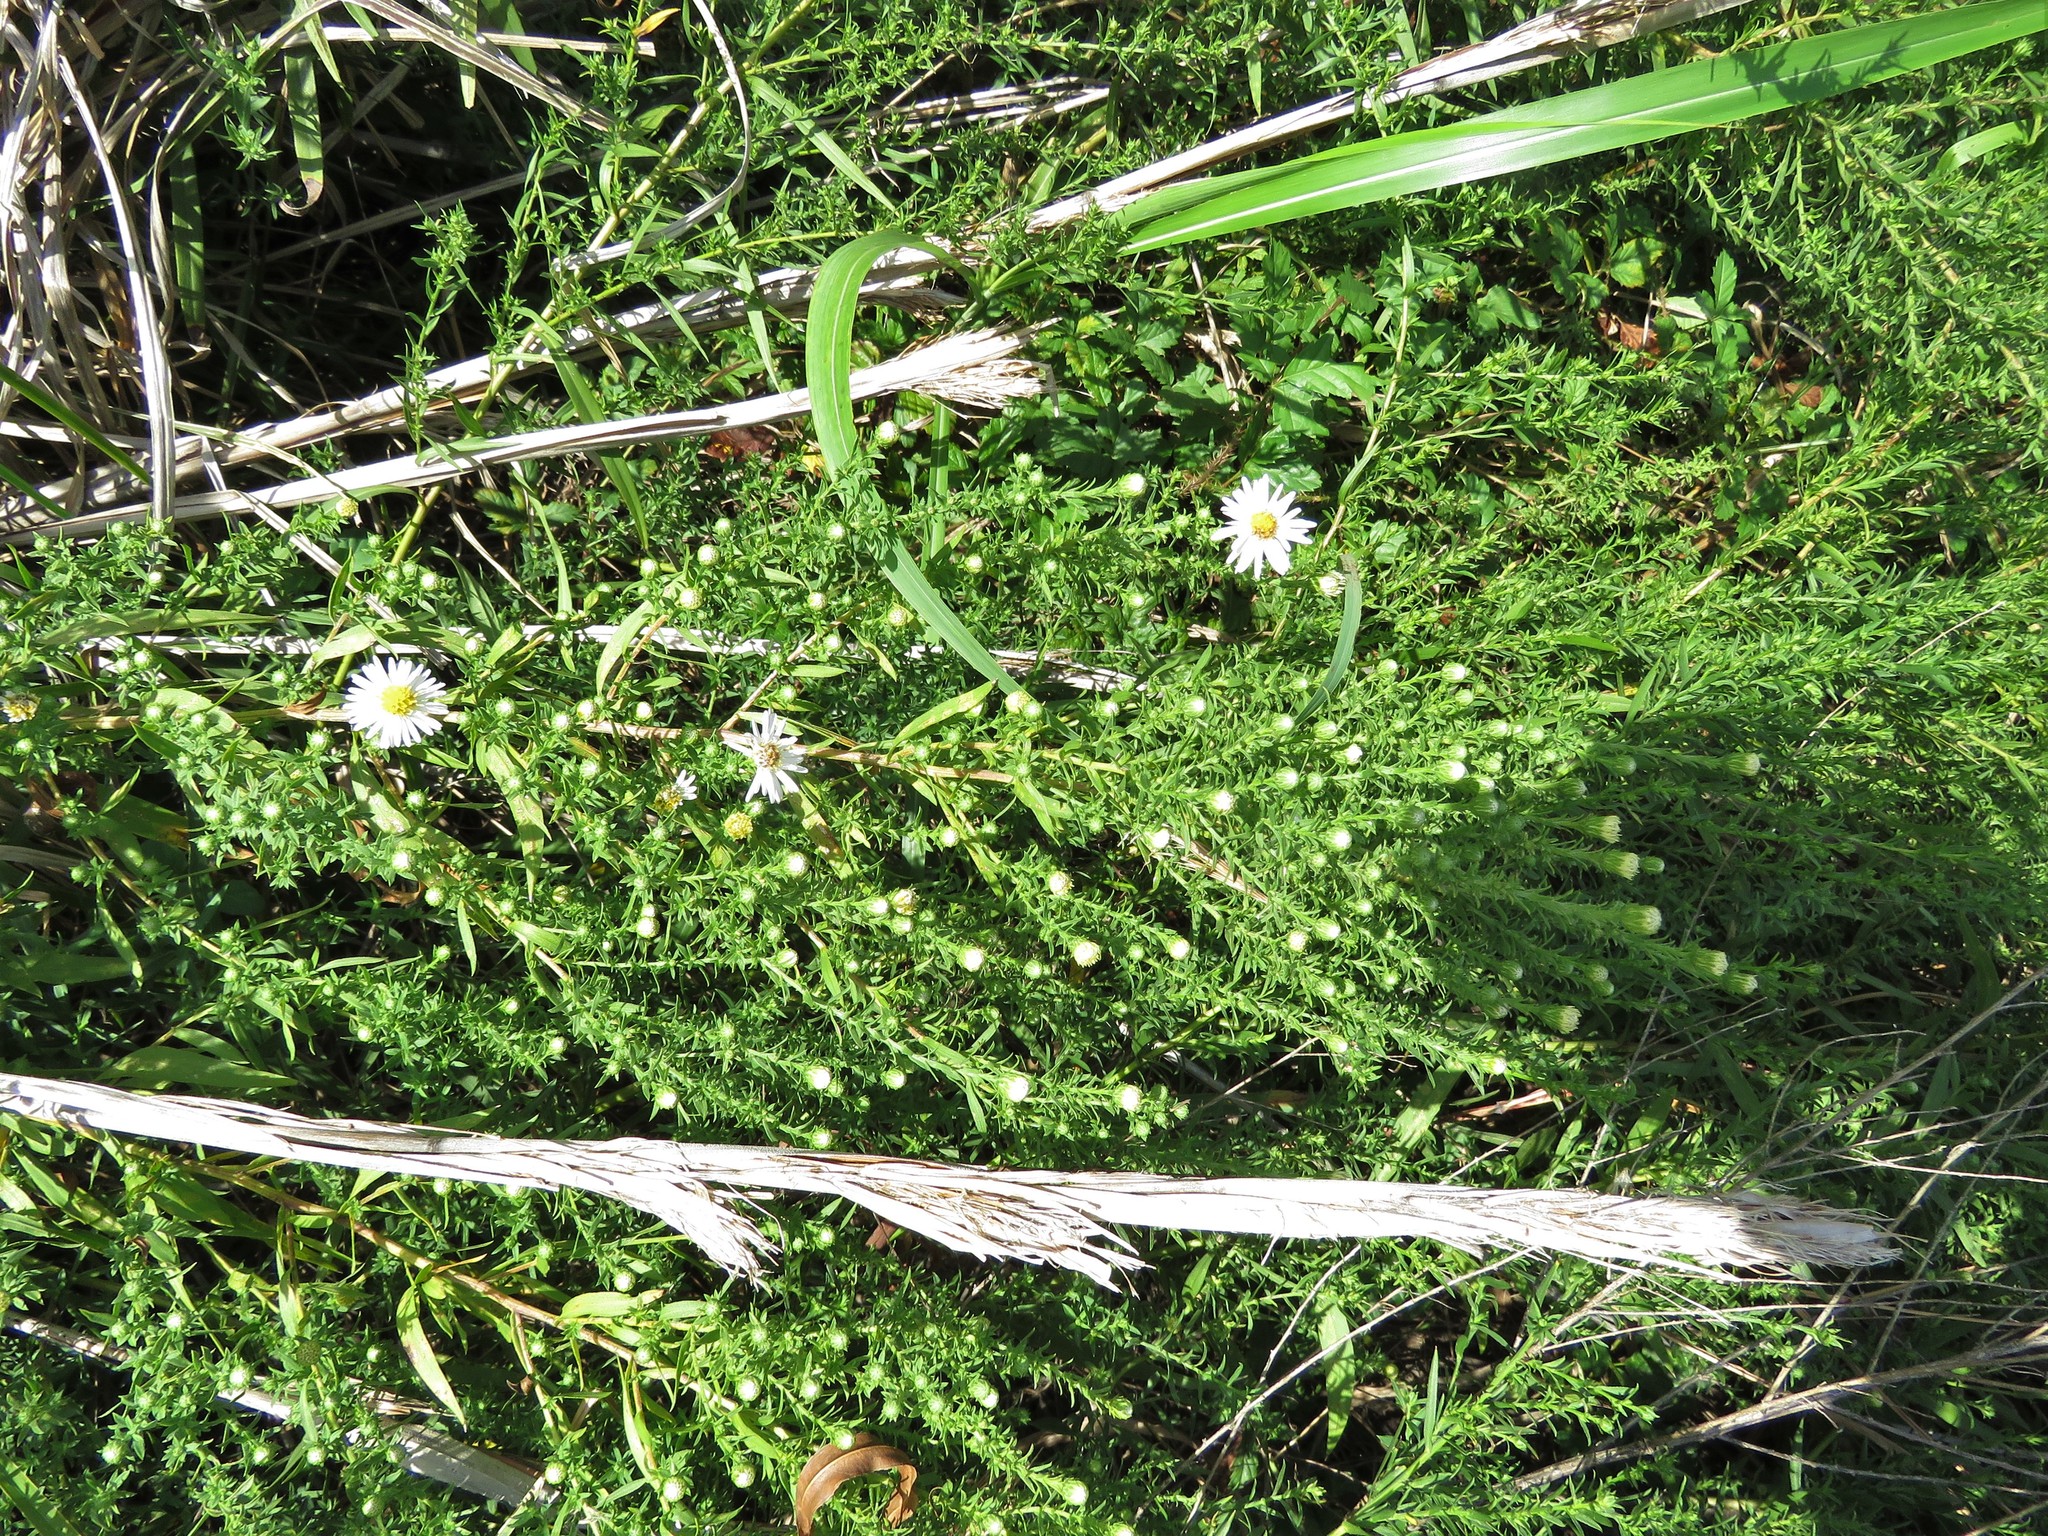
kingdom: Plantae
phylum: Tracheophyta
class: Magnoliopsida
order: Asterales
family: Asteraceae
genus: Symphyotrichum
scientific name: Symphyotrichum ericoides
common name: Heath aster
